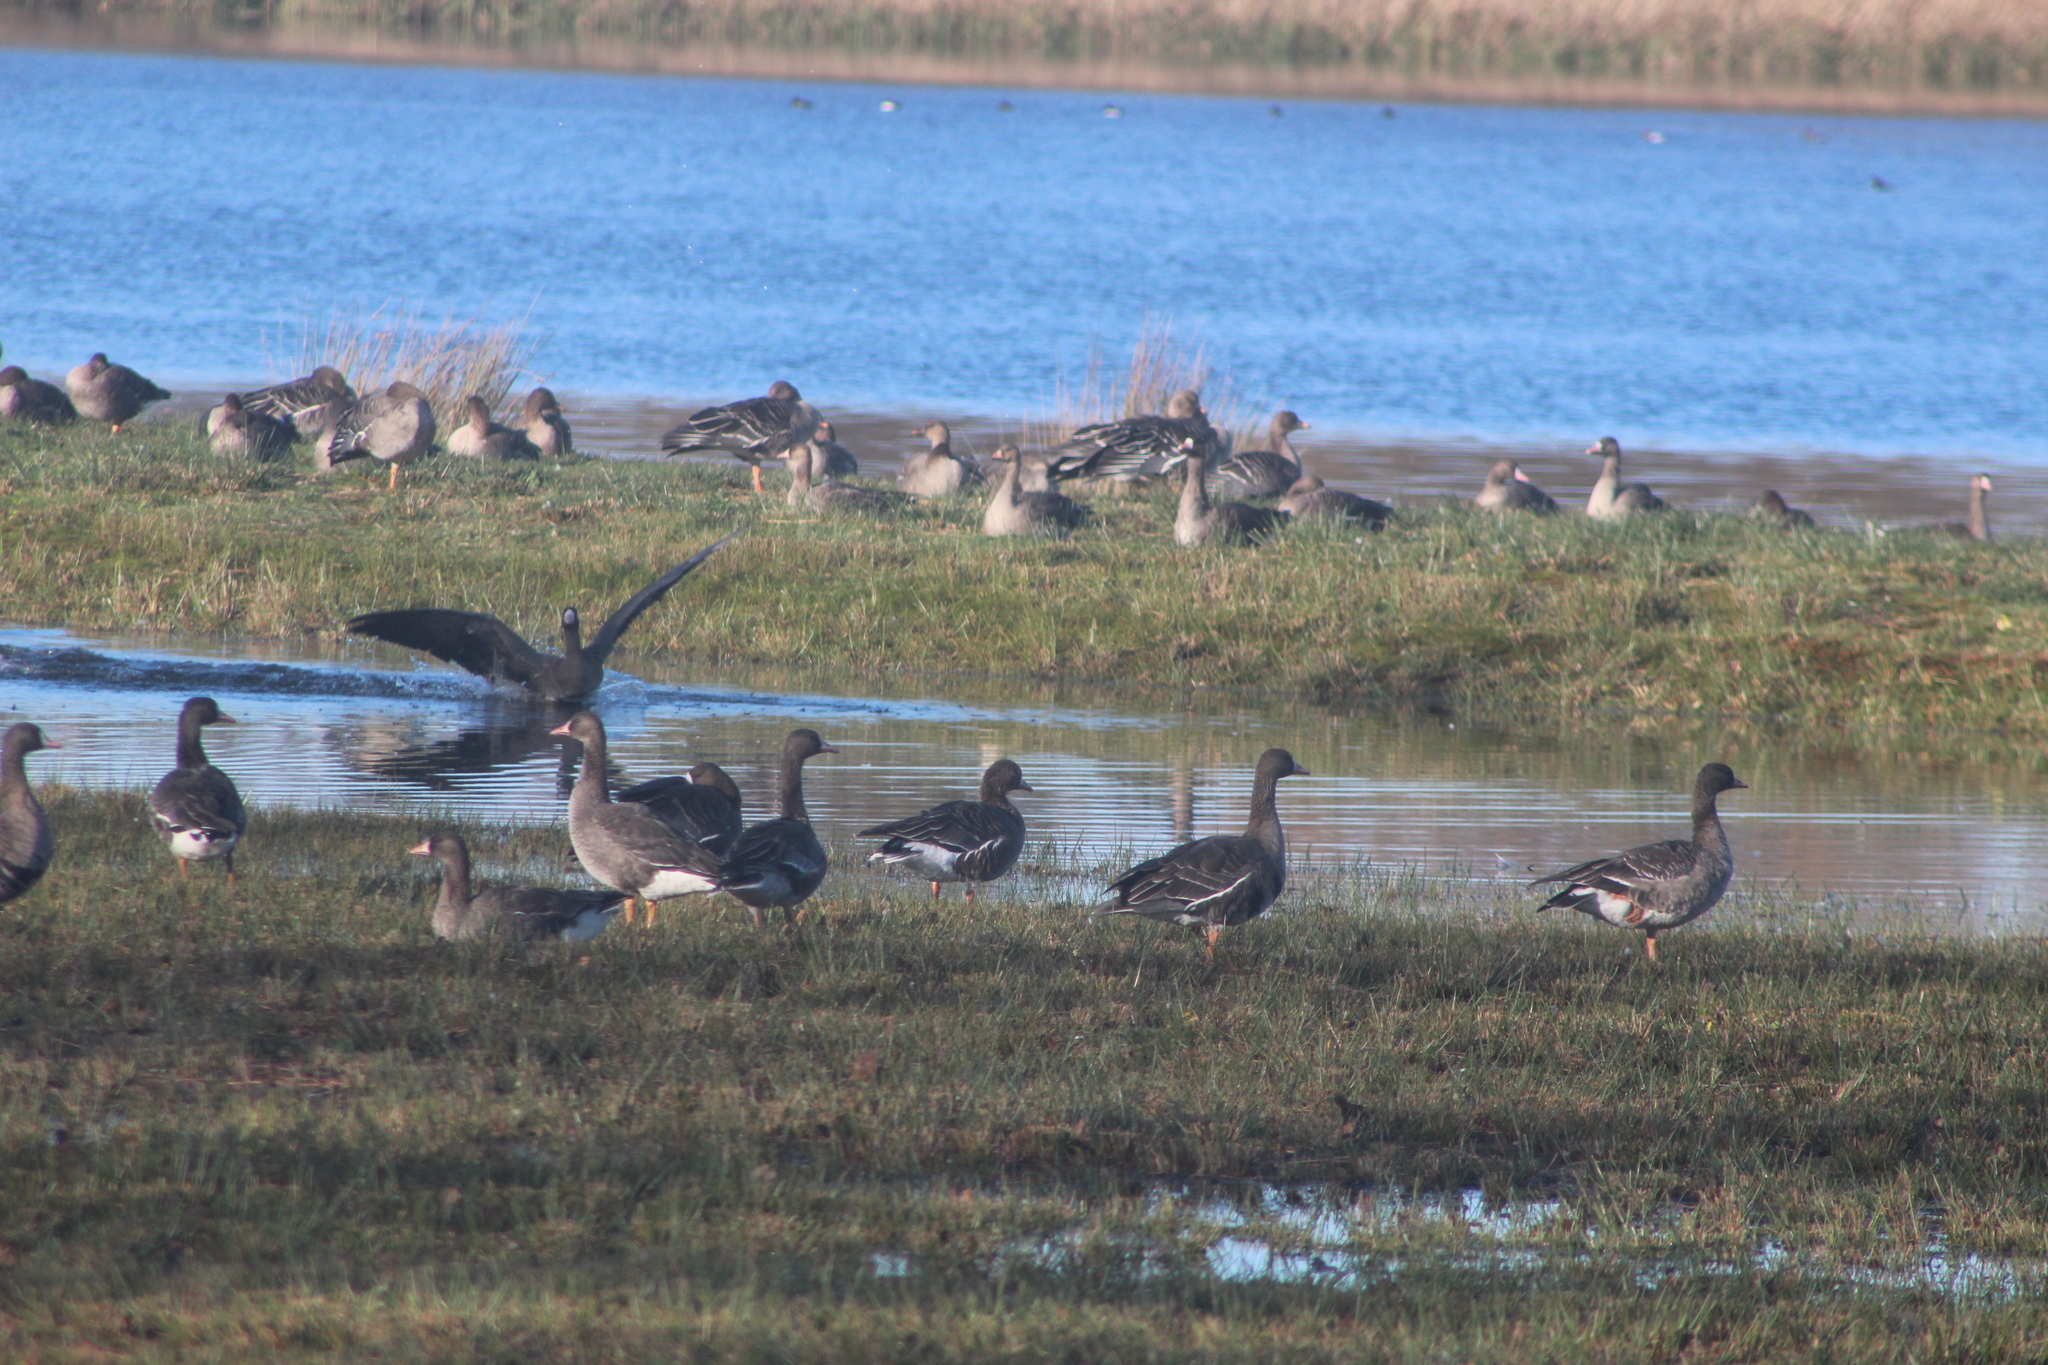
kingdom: Animalia
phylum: Chordata
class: Aves
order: Anseriformes
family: Anatidae
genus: Anser
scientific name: Anser albifrons
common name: Greater white-fronted goose
